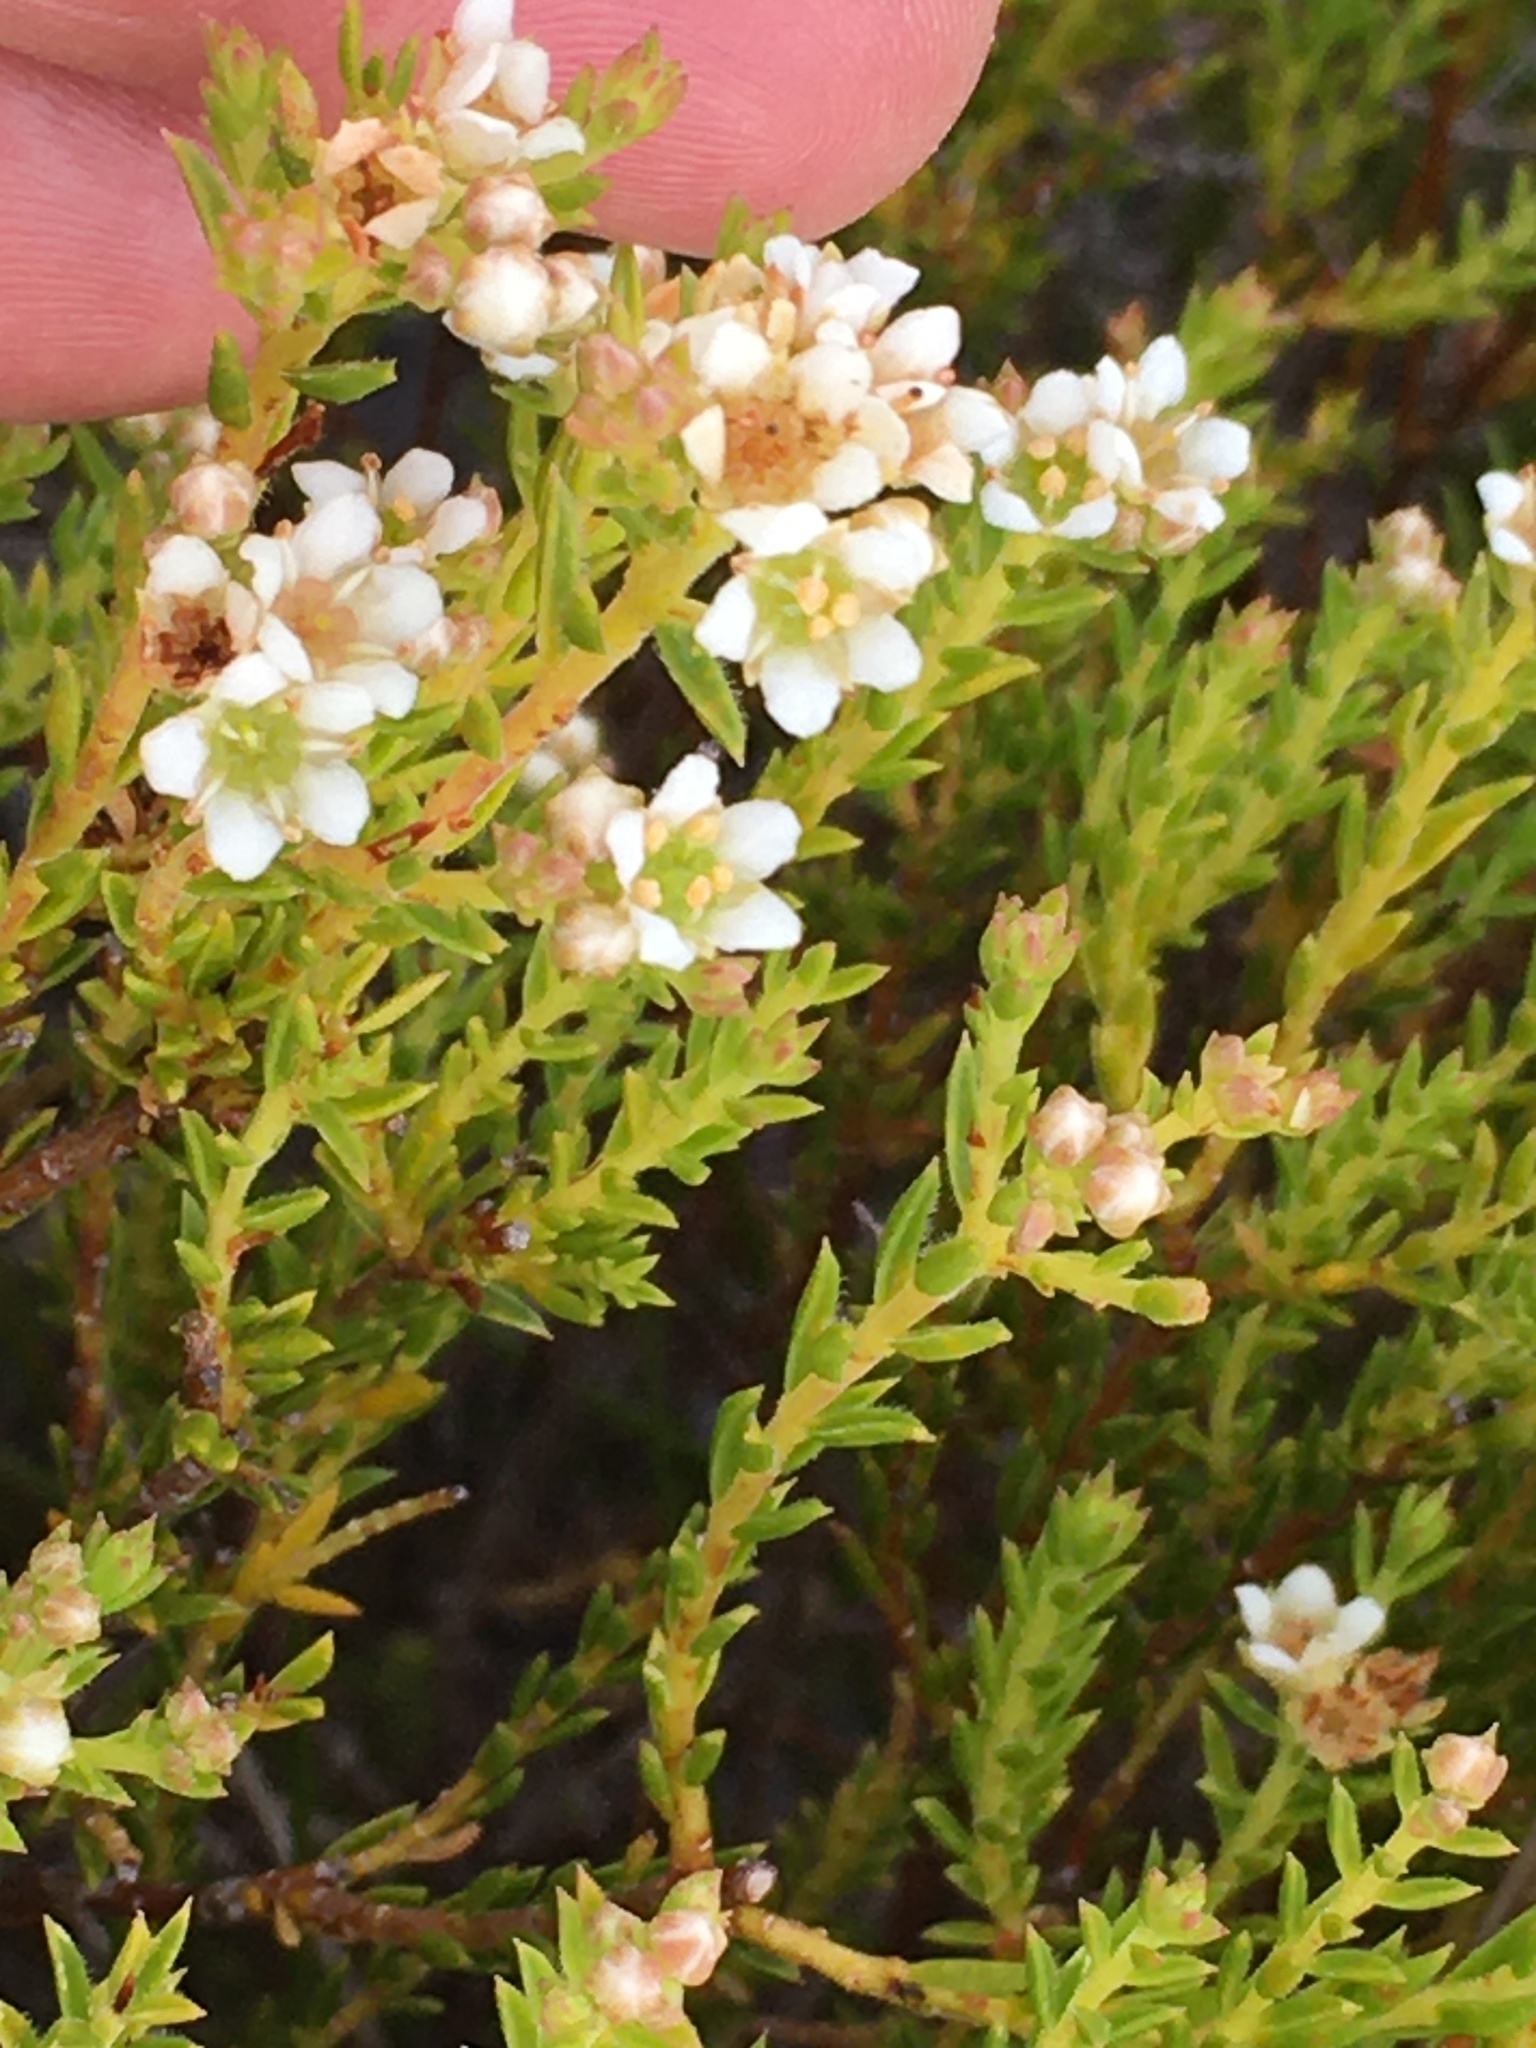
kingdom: Plantae
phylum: Tracheophyta
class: Magnoliopsida
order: Sapindales
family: Rutaceae
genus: Diosma
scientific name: Diosma oppositifolia
